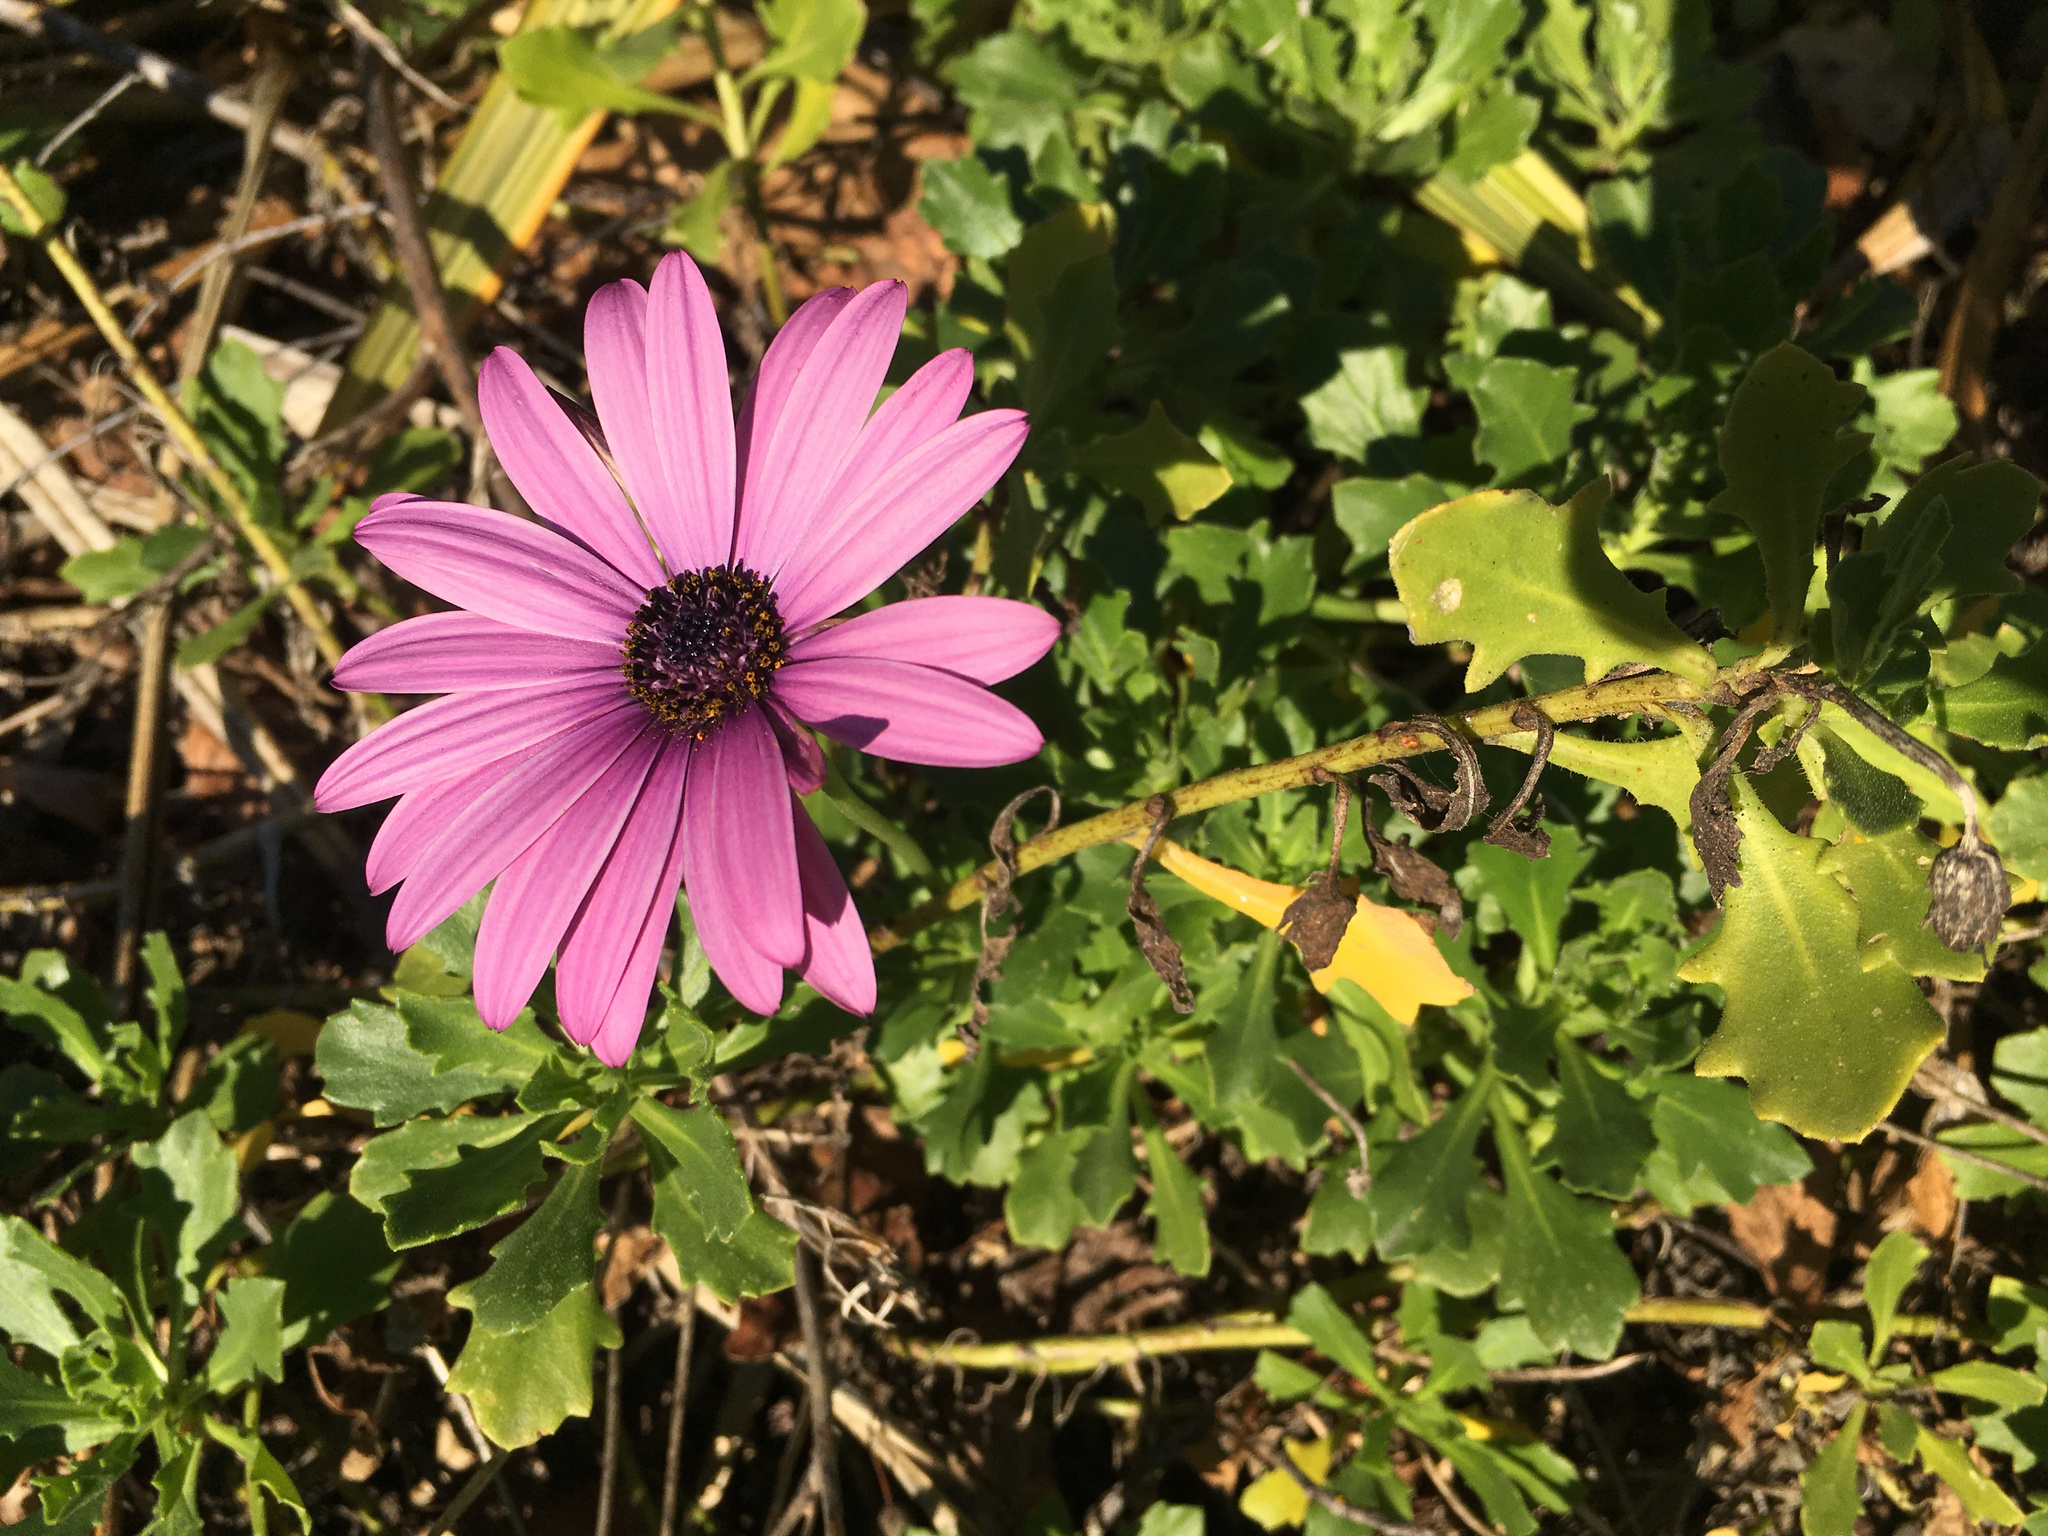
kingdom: Plantae
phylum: Tracheophyta
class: Magnoliopsida
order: Asterales
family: Asteraceae
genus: Dimorphotheca
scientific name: Dimorphotheca fruticosa
